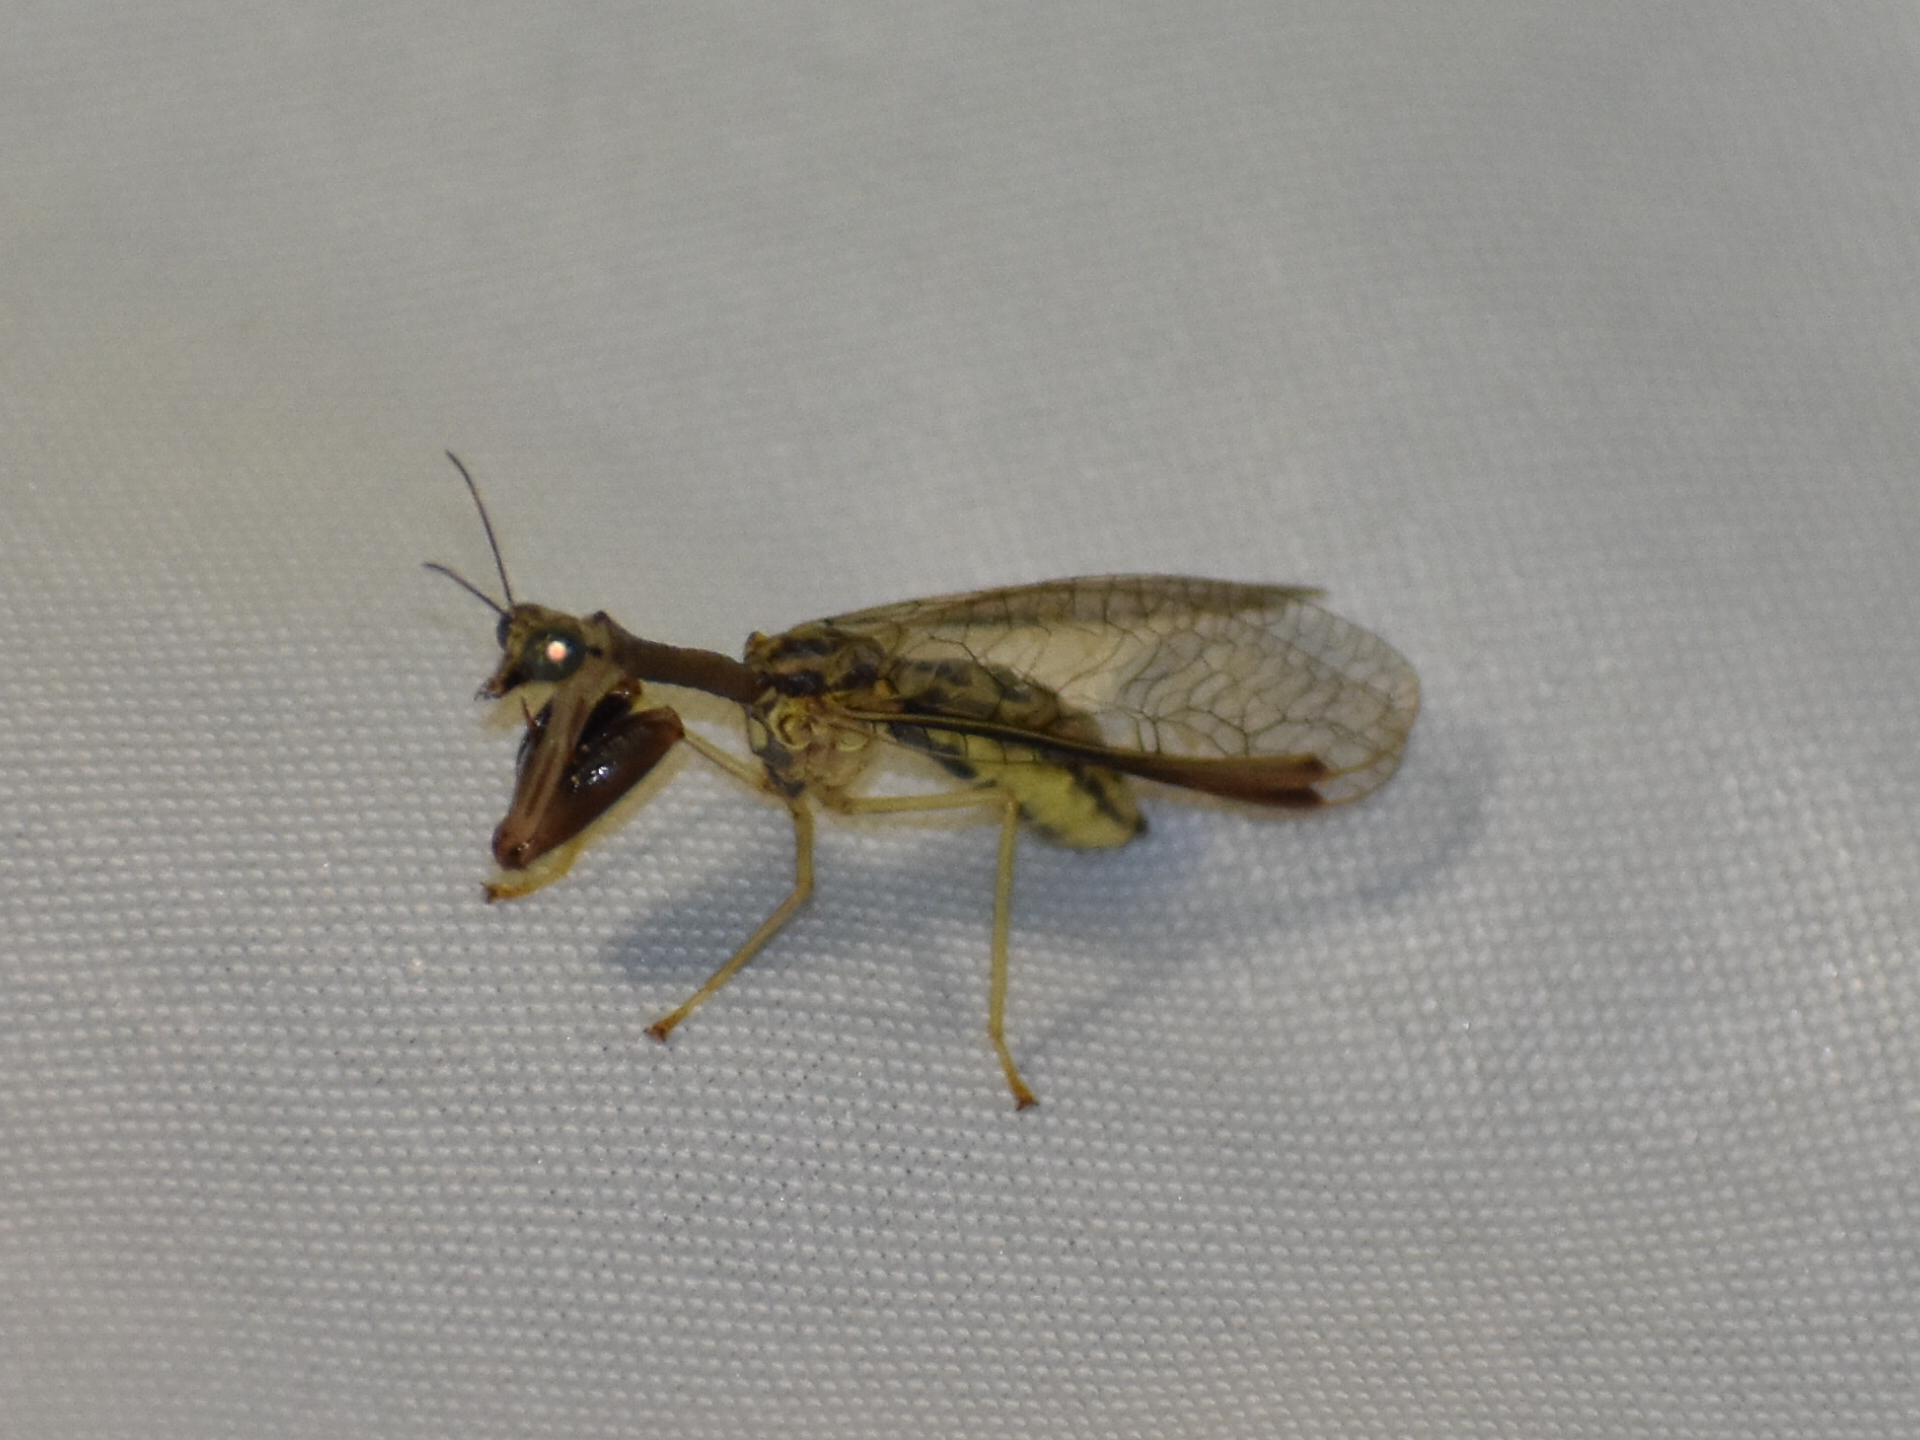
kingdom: Animalia
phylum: Arthropoda
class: Insecta
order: Neuroptera
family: Mantispidae
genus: Dicromantispa
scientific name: Dicromantispa sayi
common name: Say's mantidfly
